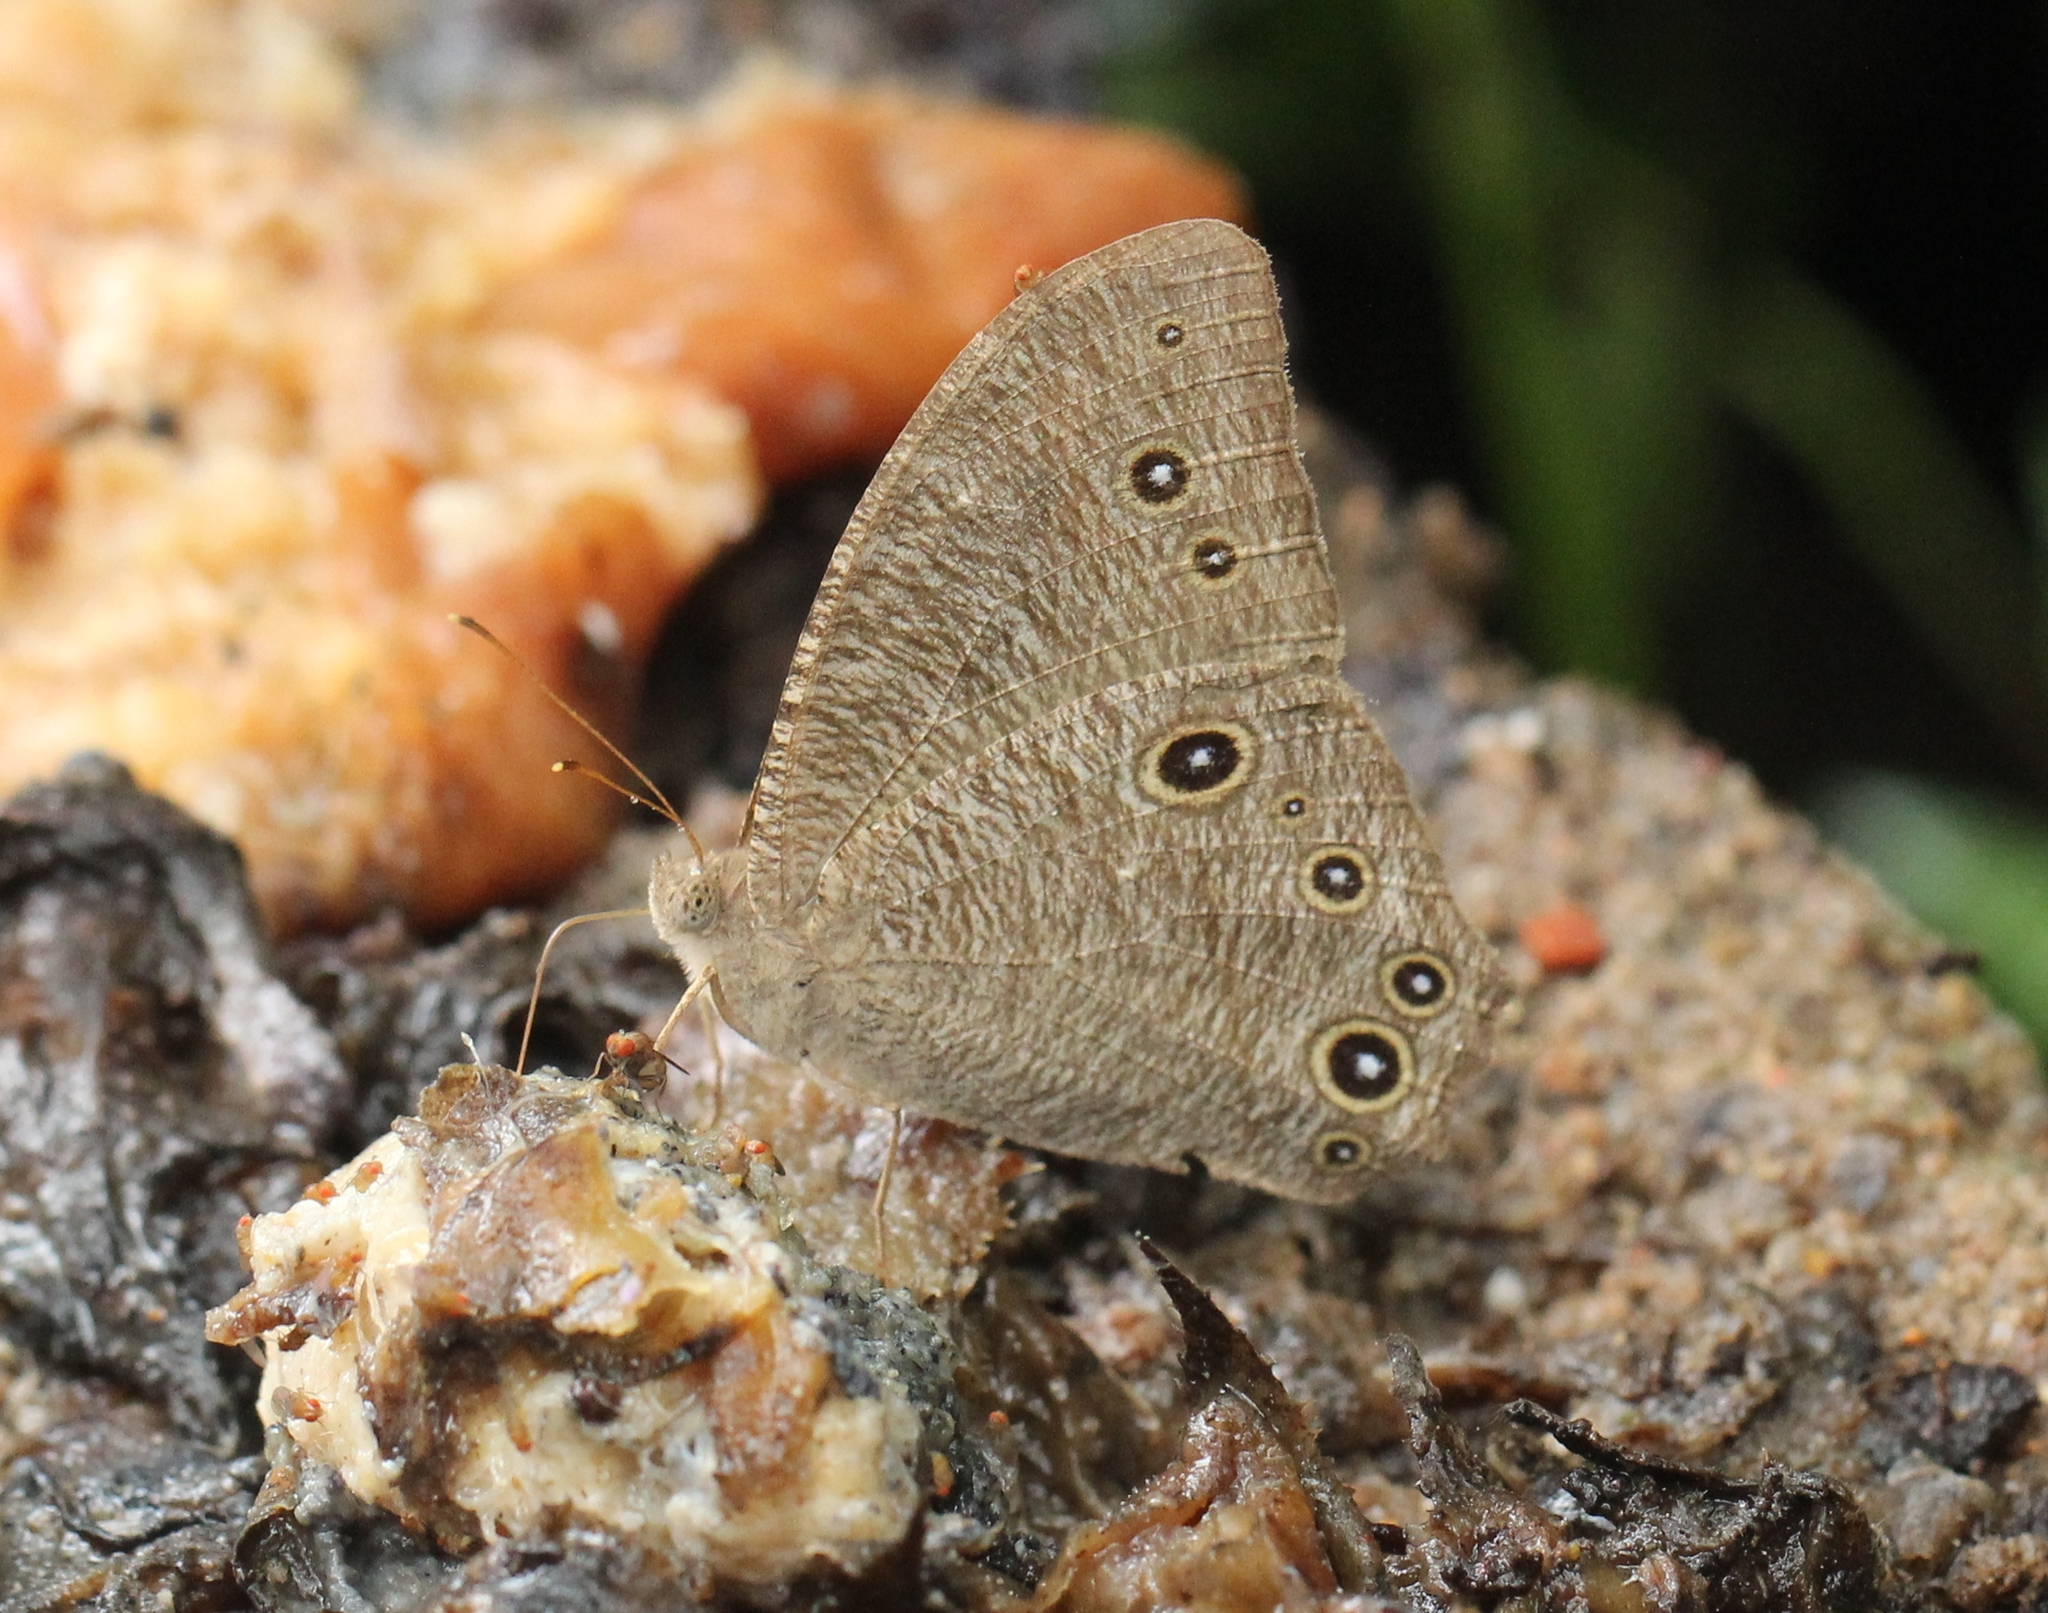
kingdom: Animalia
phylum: Arthropoda
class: Insecta
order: Lepidoptera
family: Nymphalidae
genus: Melanitis
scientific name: Melanitis leda
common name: Twilight brown
